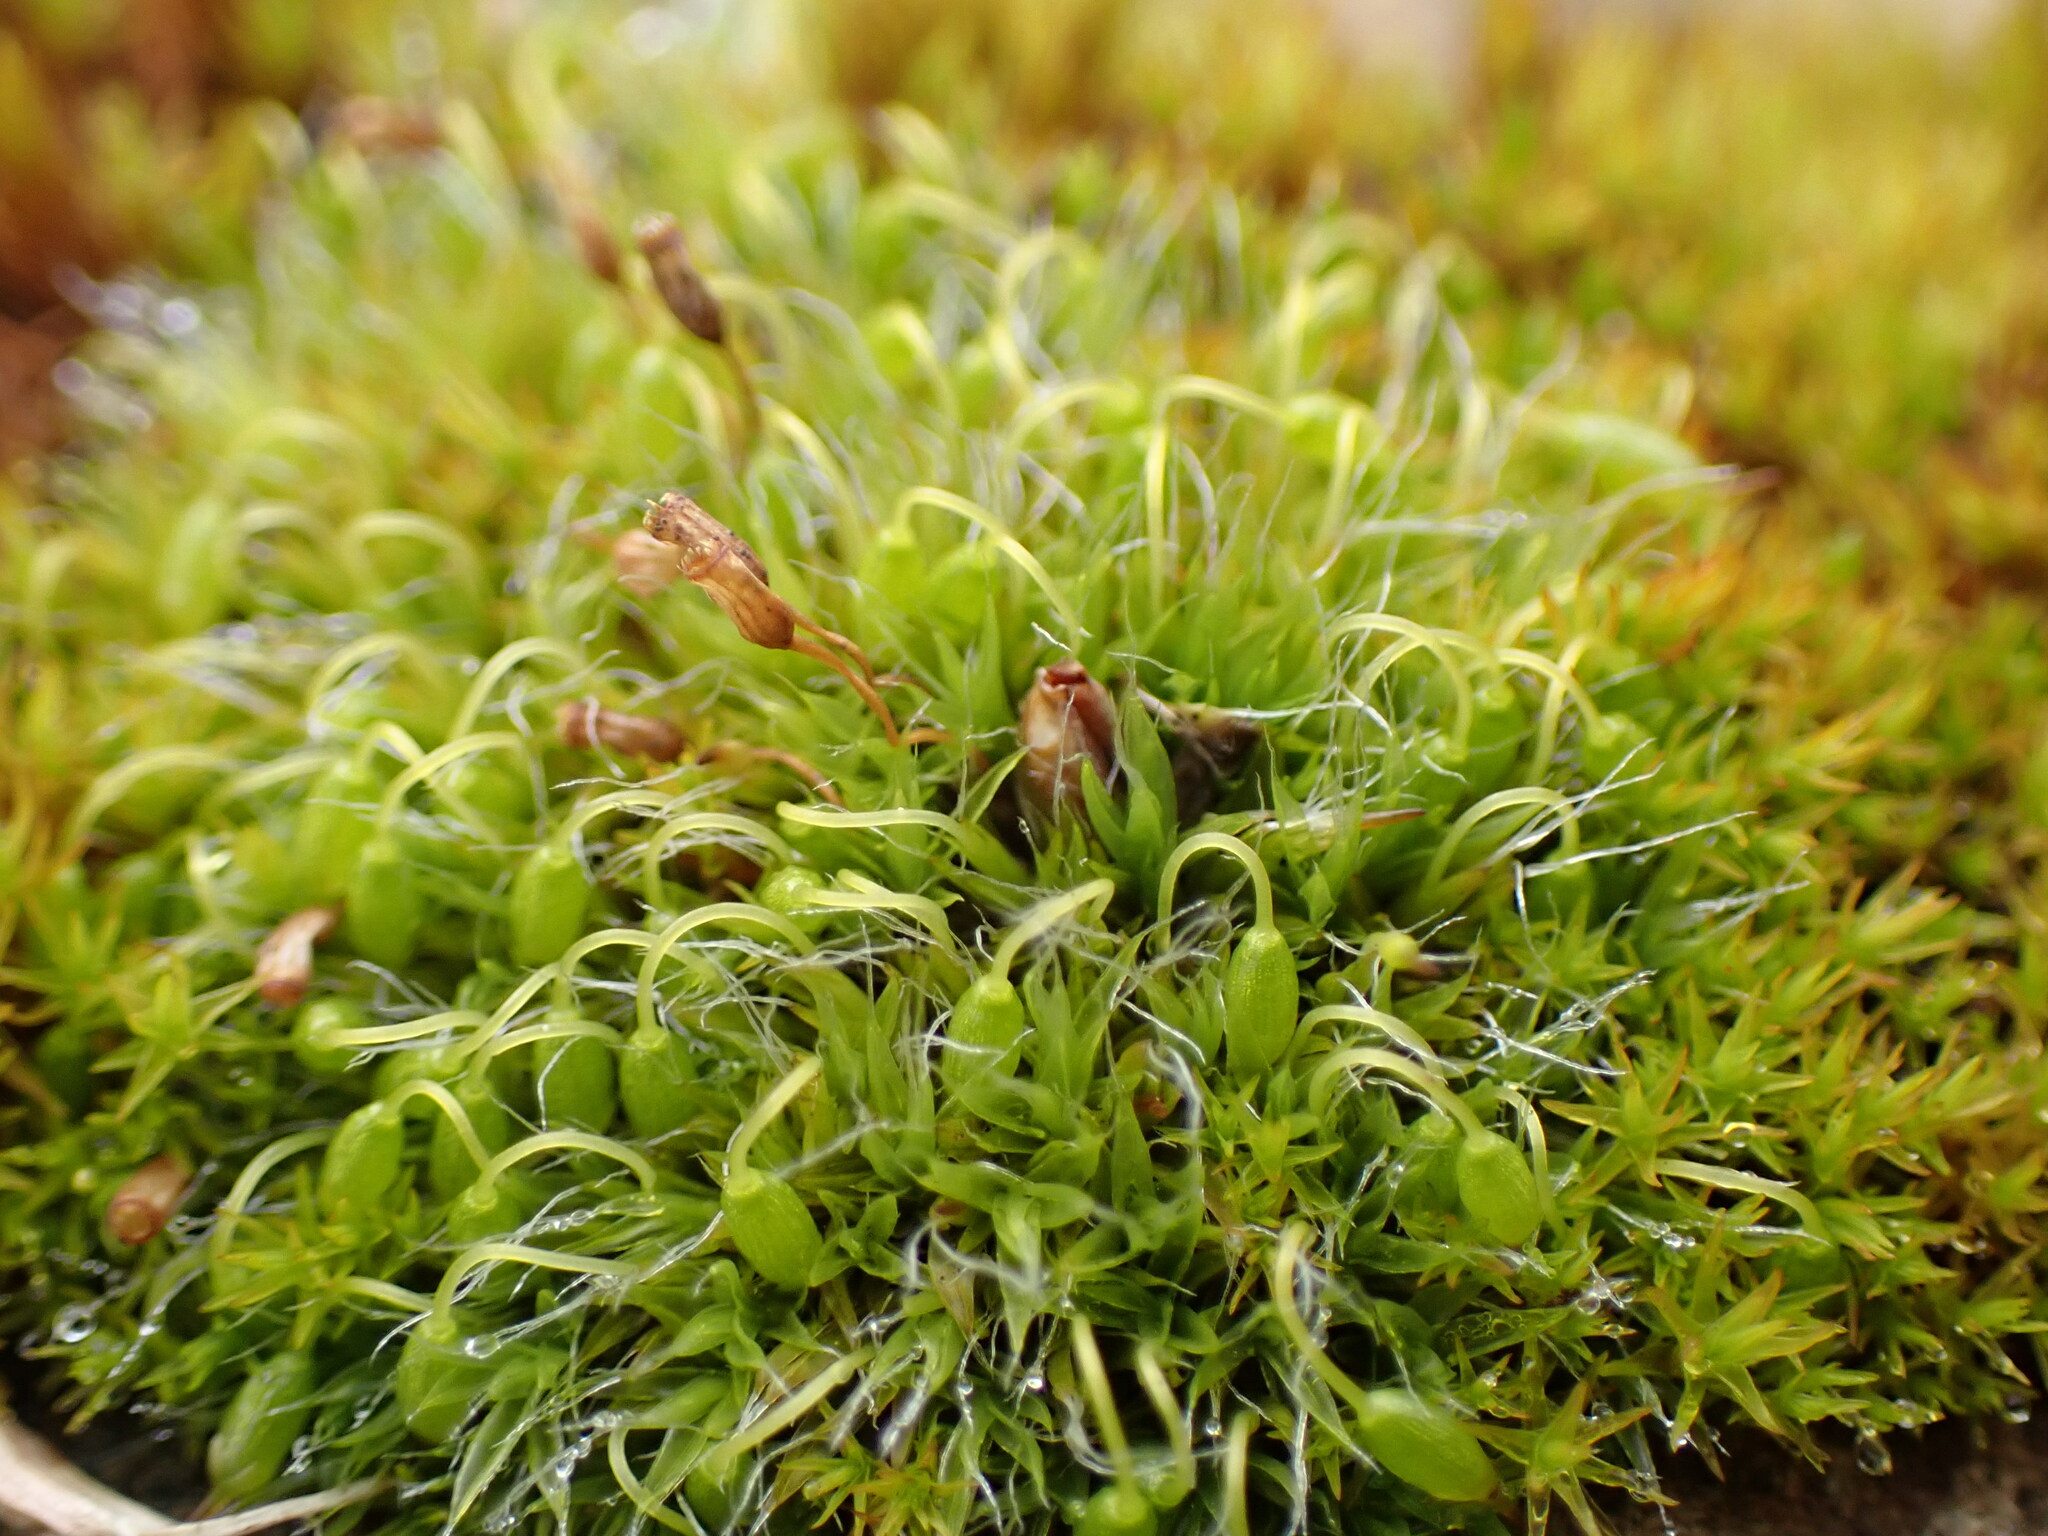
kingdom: Plantae
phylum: Bryophyta
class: Bryopsida
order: Grimmiales
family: Grimmiaceae
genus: Grimmia
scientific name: Grimmia pulvinata
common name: Grey-cushioned grimmia
